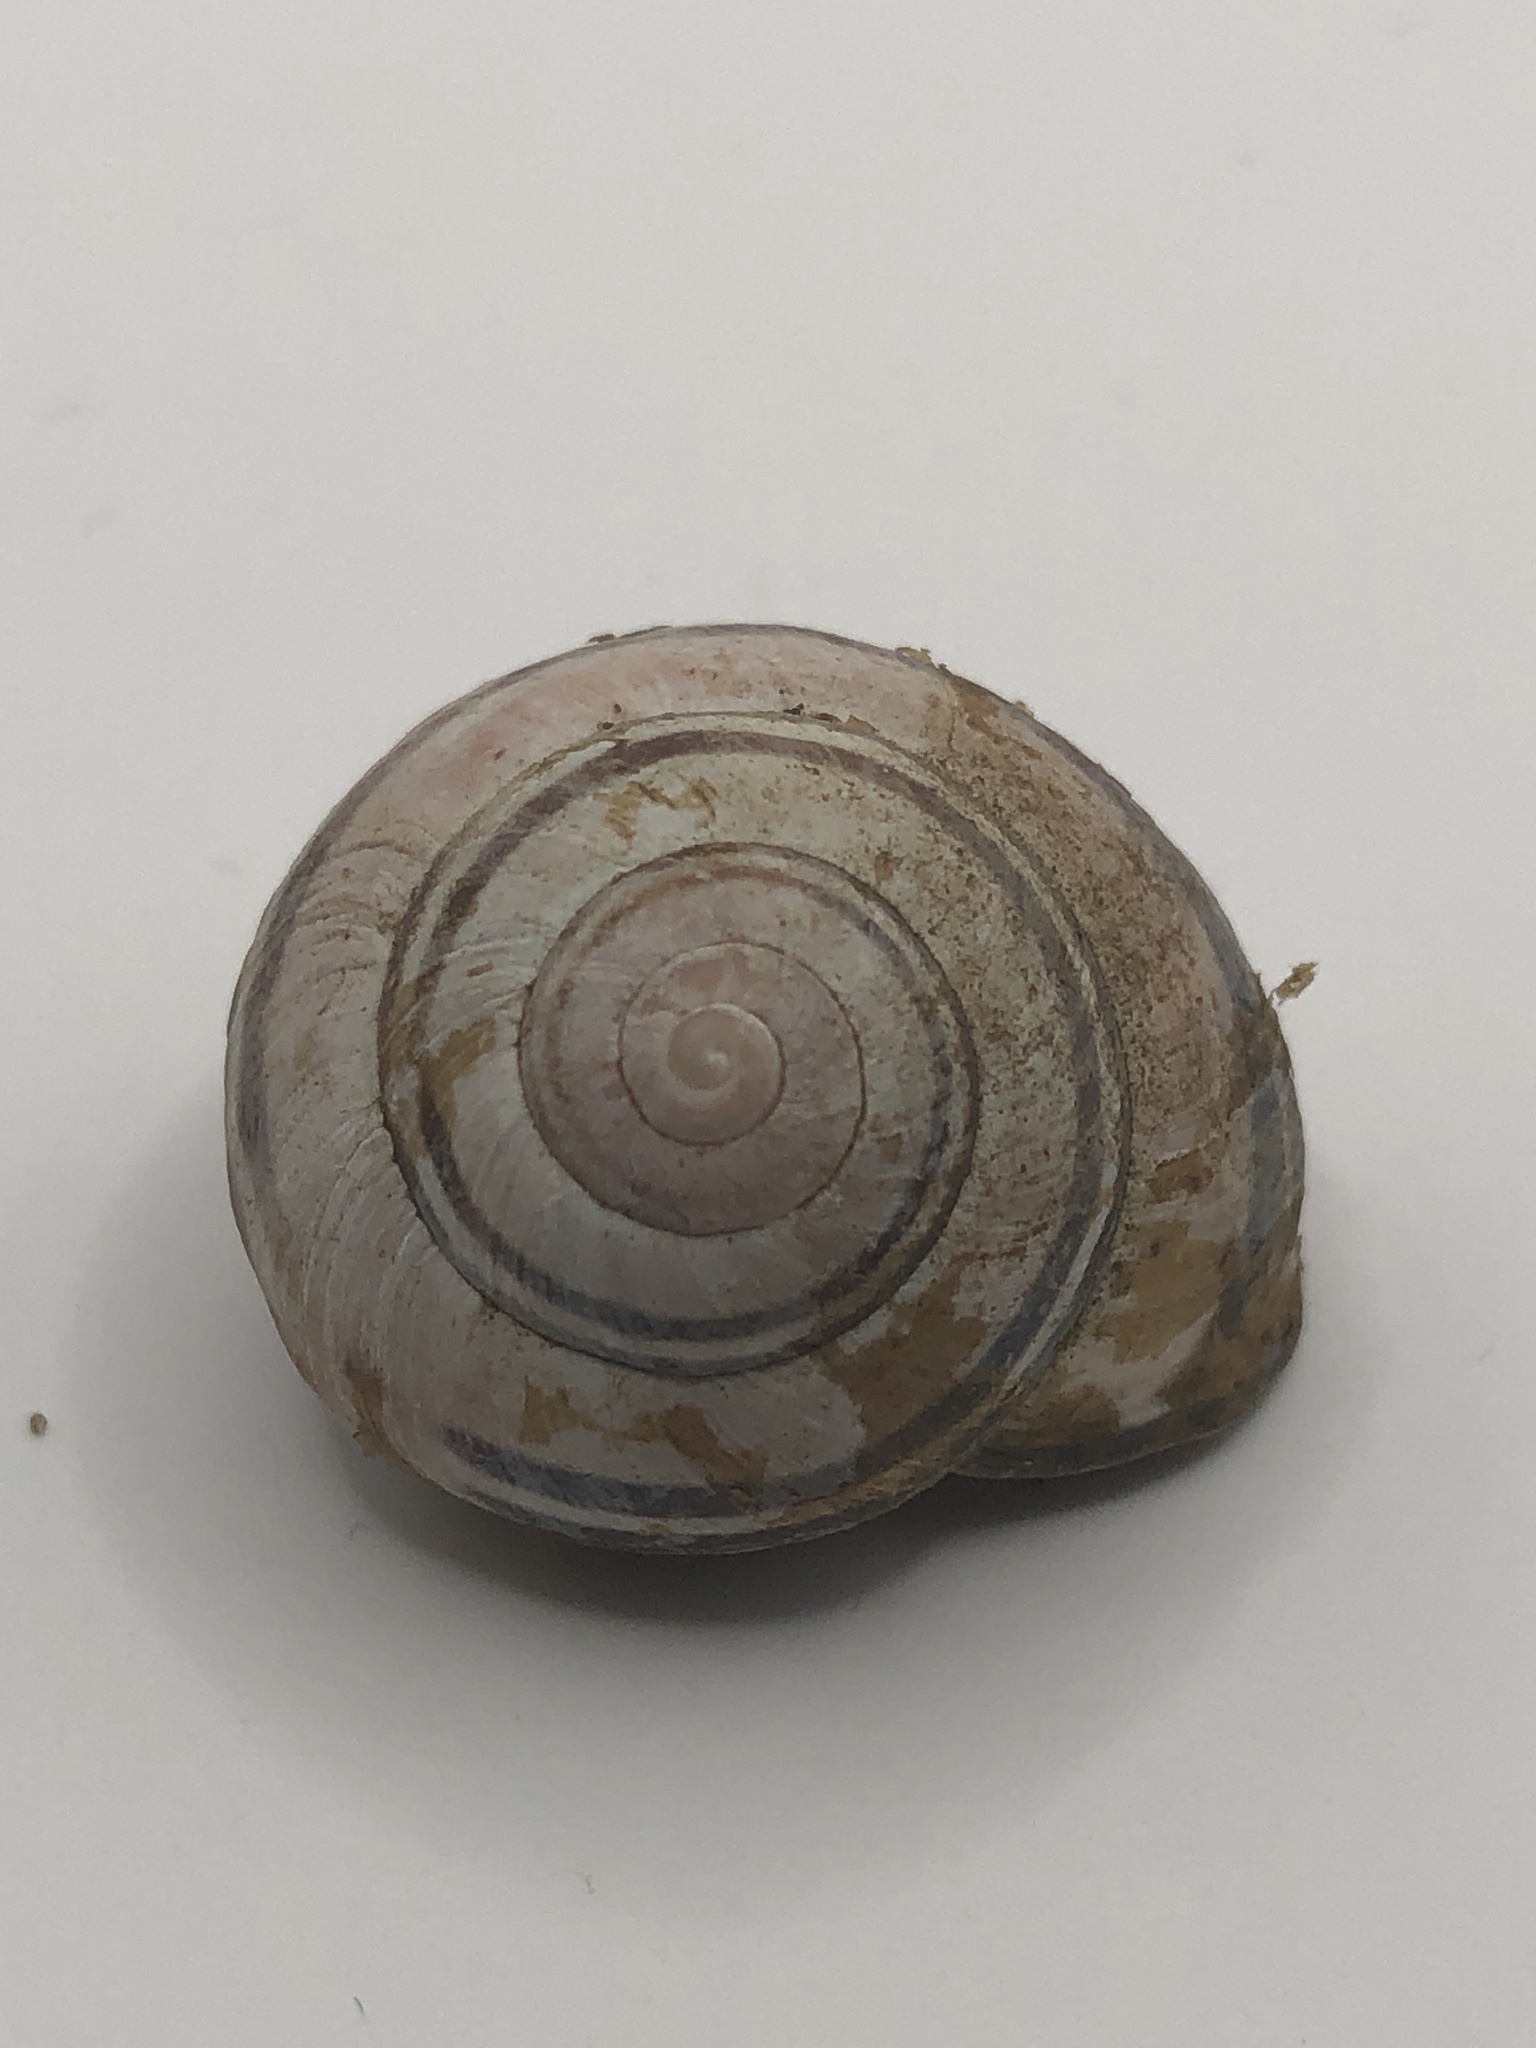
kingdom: Animalia
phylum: Mollusca
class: Gastropoda
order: Stylommatophora
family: Helicidae
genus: Cepaea
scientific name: Cepaea nemoralis
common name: Grovesnail
